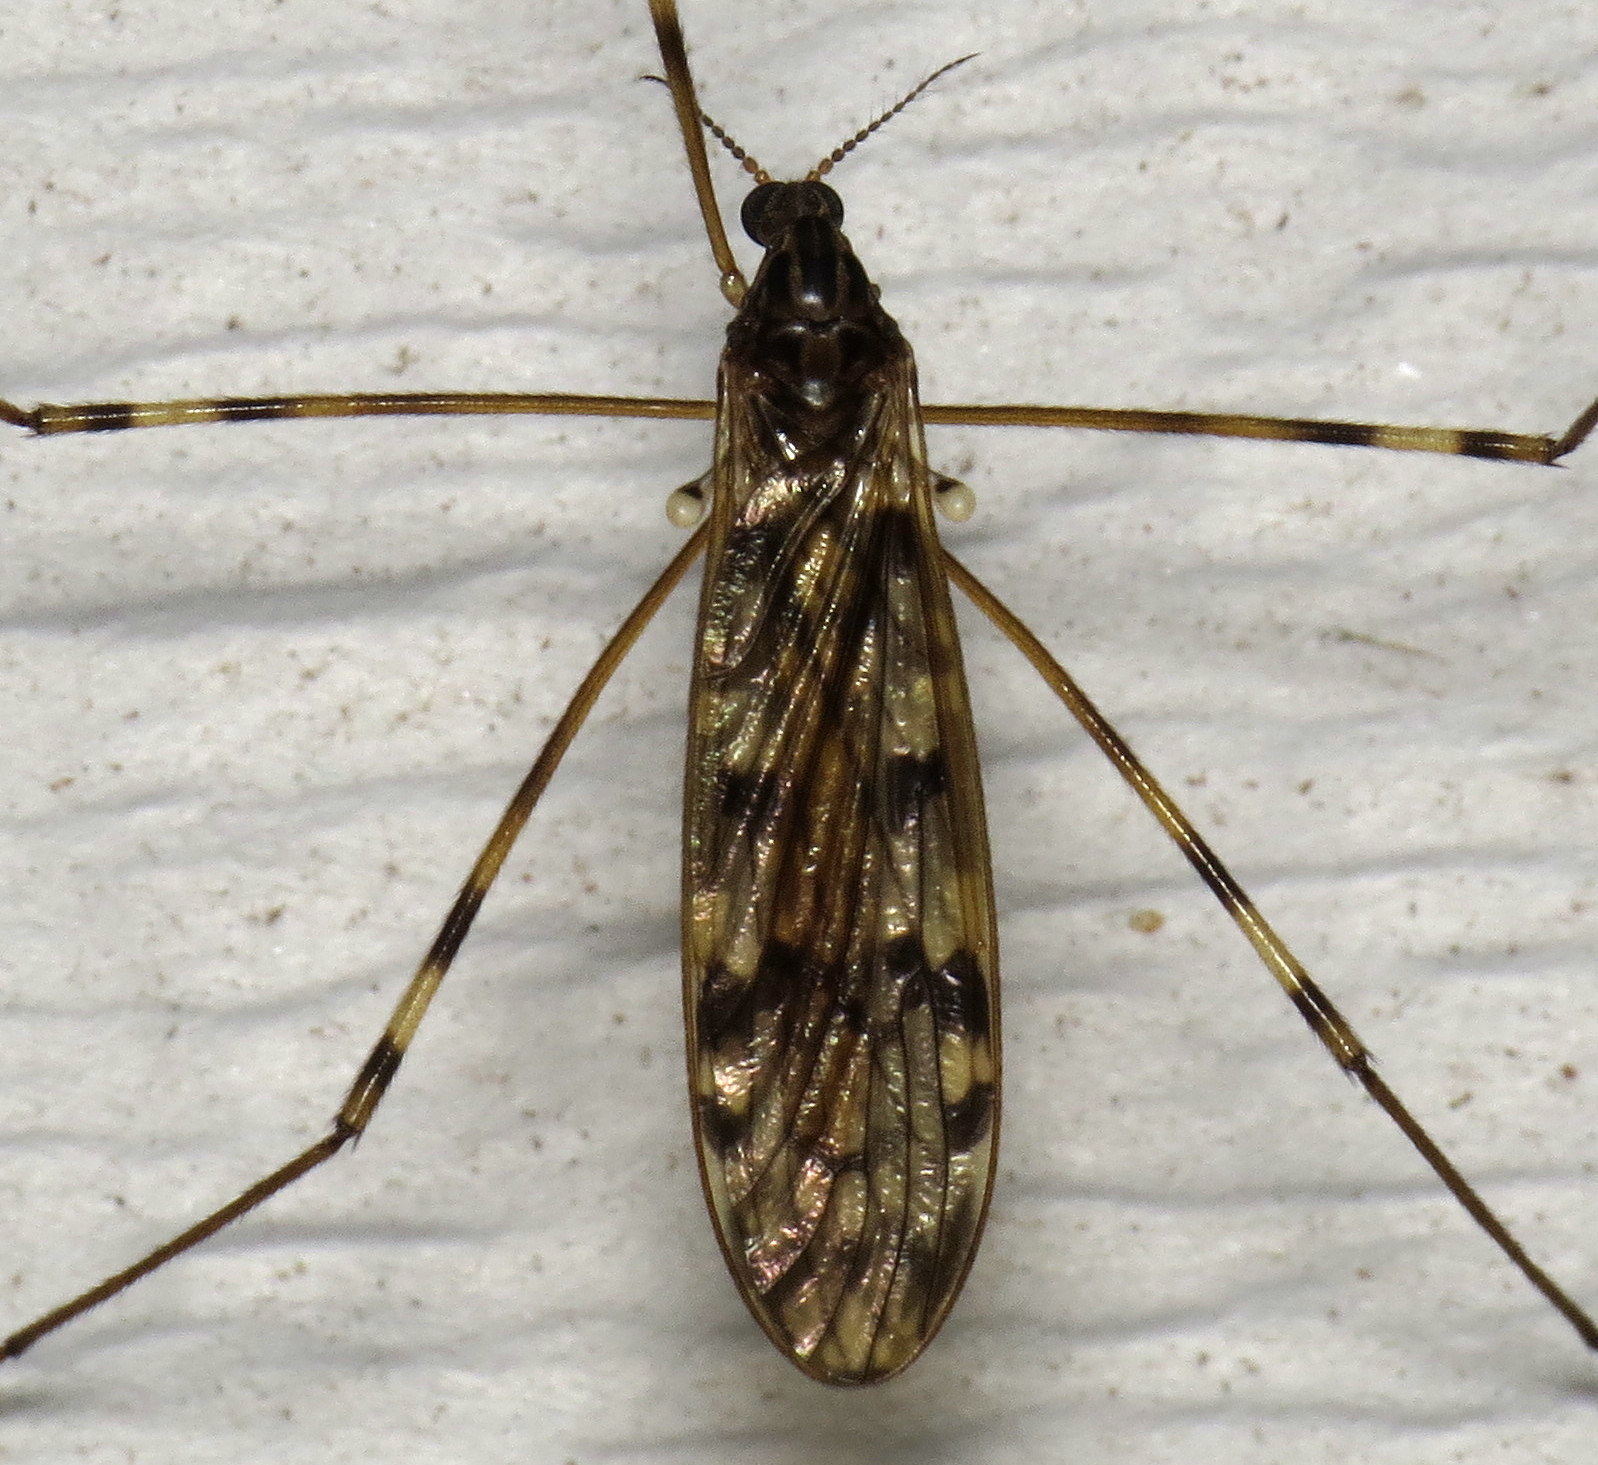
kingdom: Animalia
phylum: Arthropoda
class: Insecta
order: Diptera
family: Limoniidae
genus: Metalimnobia
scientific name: Metalimnobia immatura
